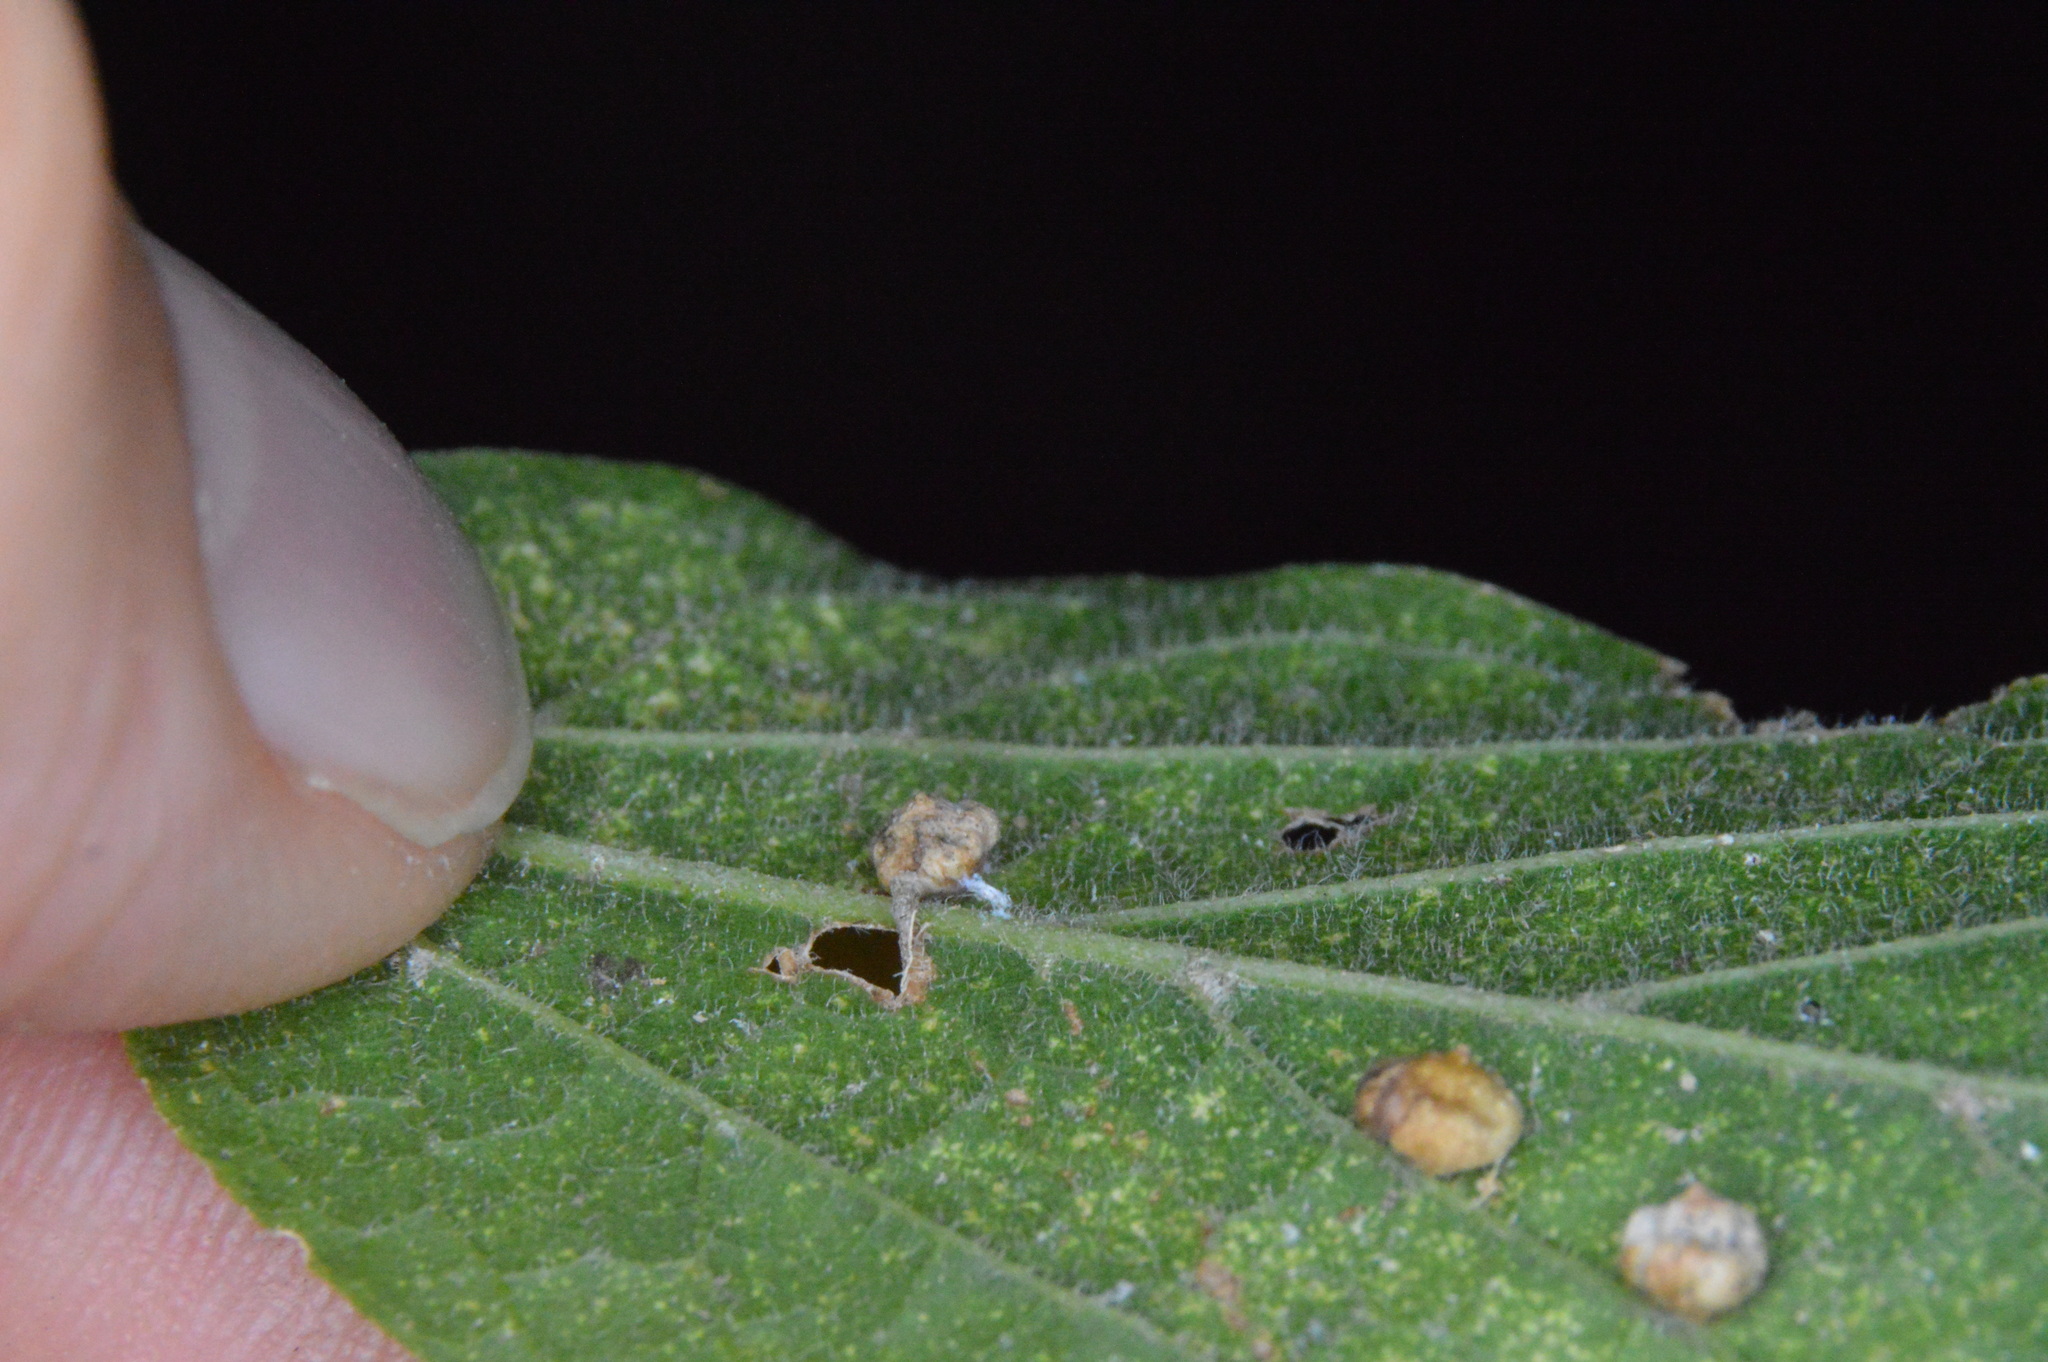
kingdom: Animalia
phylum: Arthropoda
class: Insecta
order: Diptera
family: Cecidomyiidae
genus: Celticecis
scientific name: Celticecis globosa
